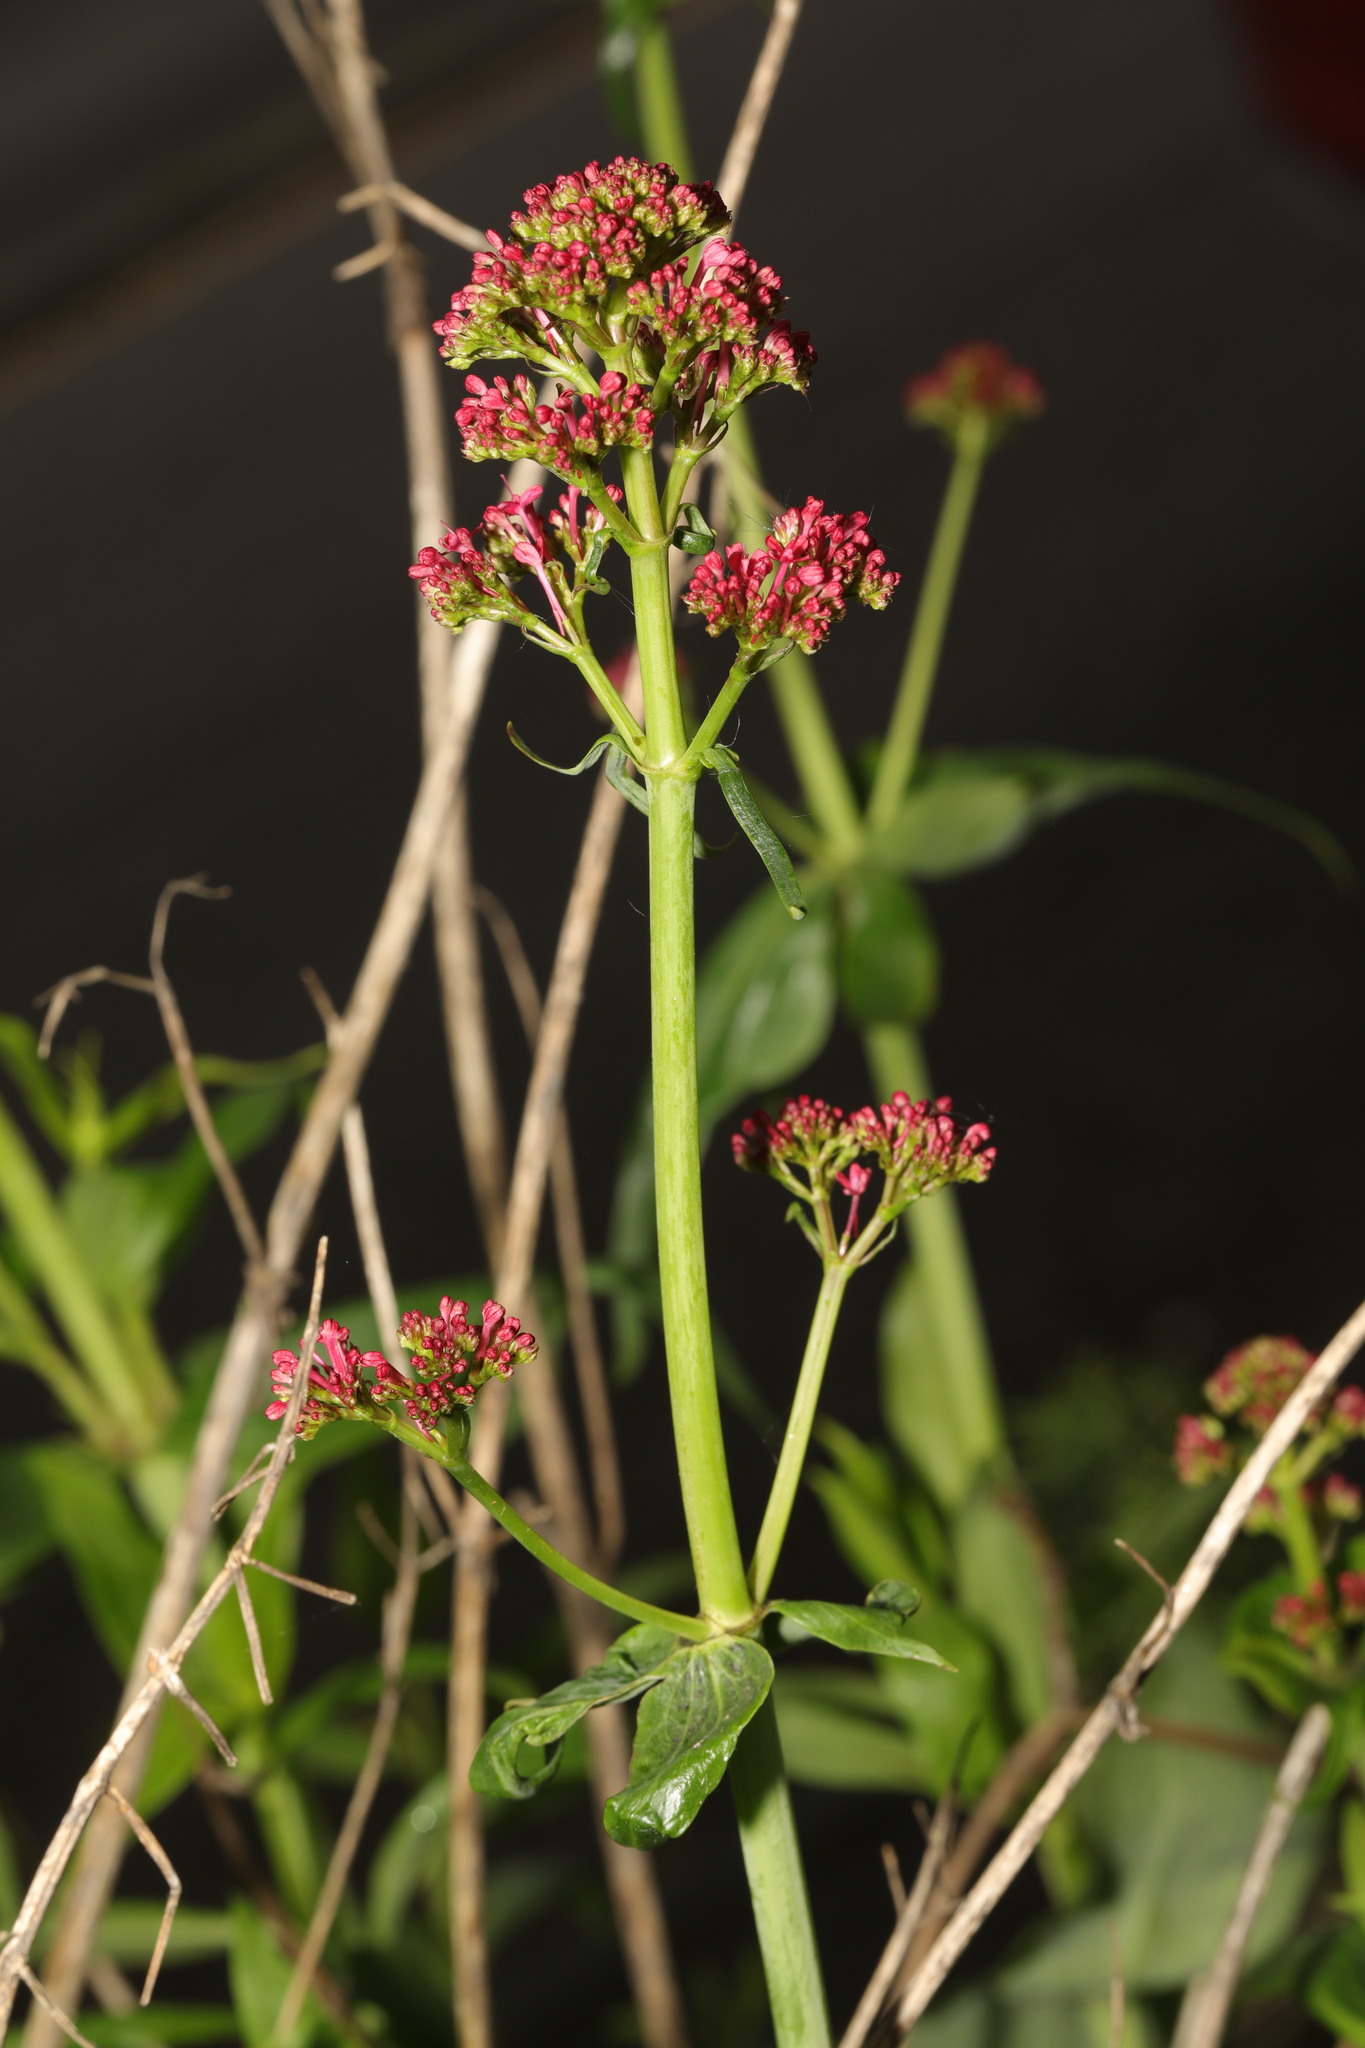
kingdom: Plantae
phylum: Tracheophyta
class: Magnoliopsida
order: Dipsacales
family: Caprifoliaceae
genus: Centranthus
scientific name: Centranthus ruber
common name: Red valerian
